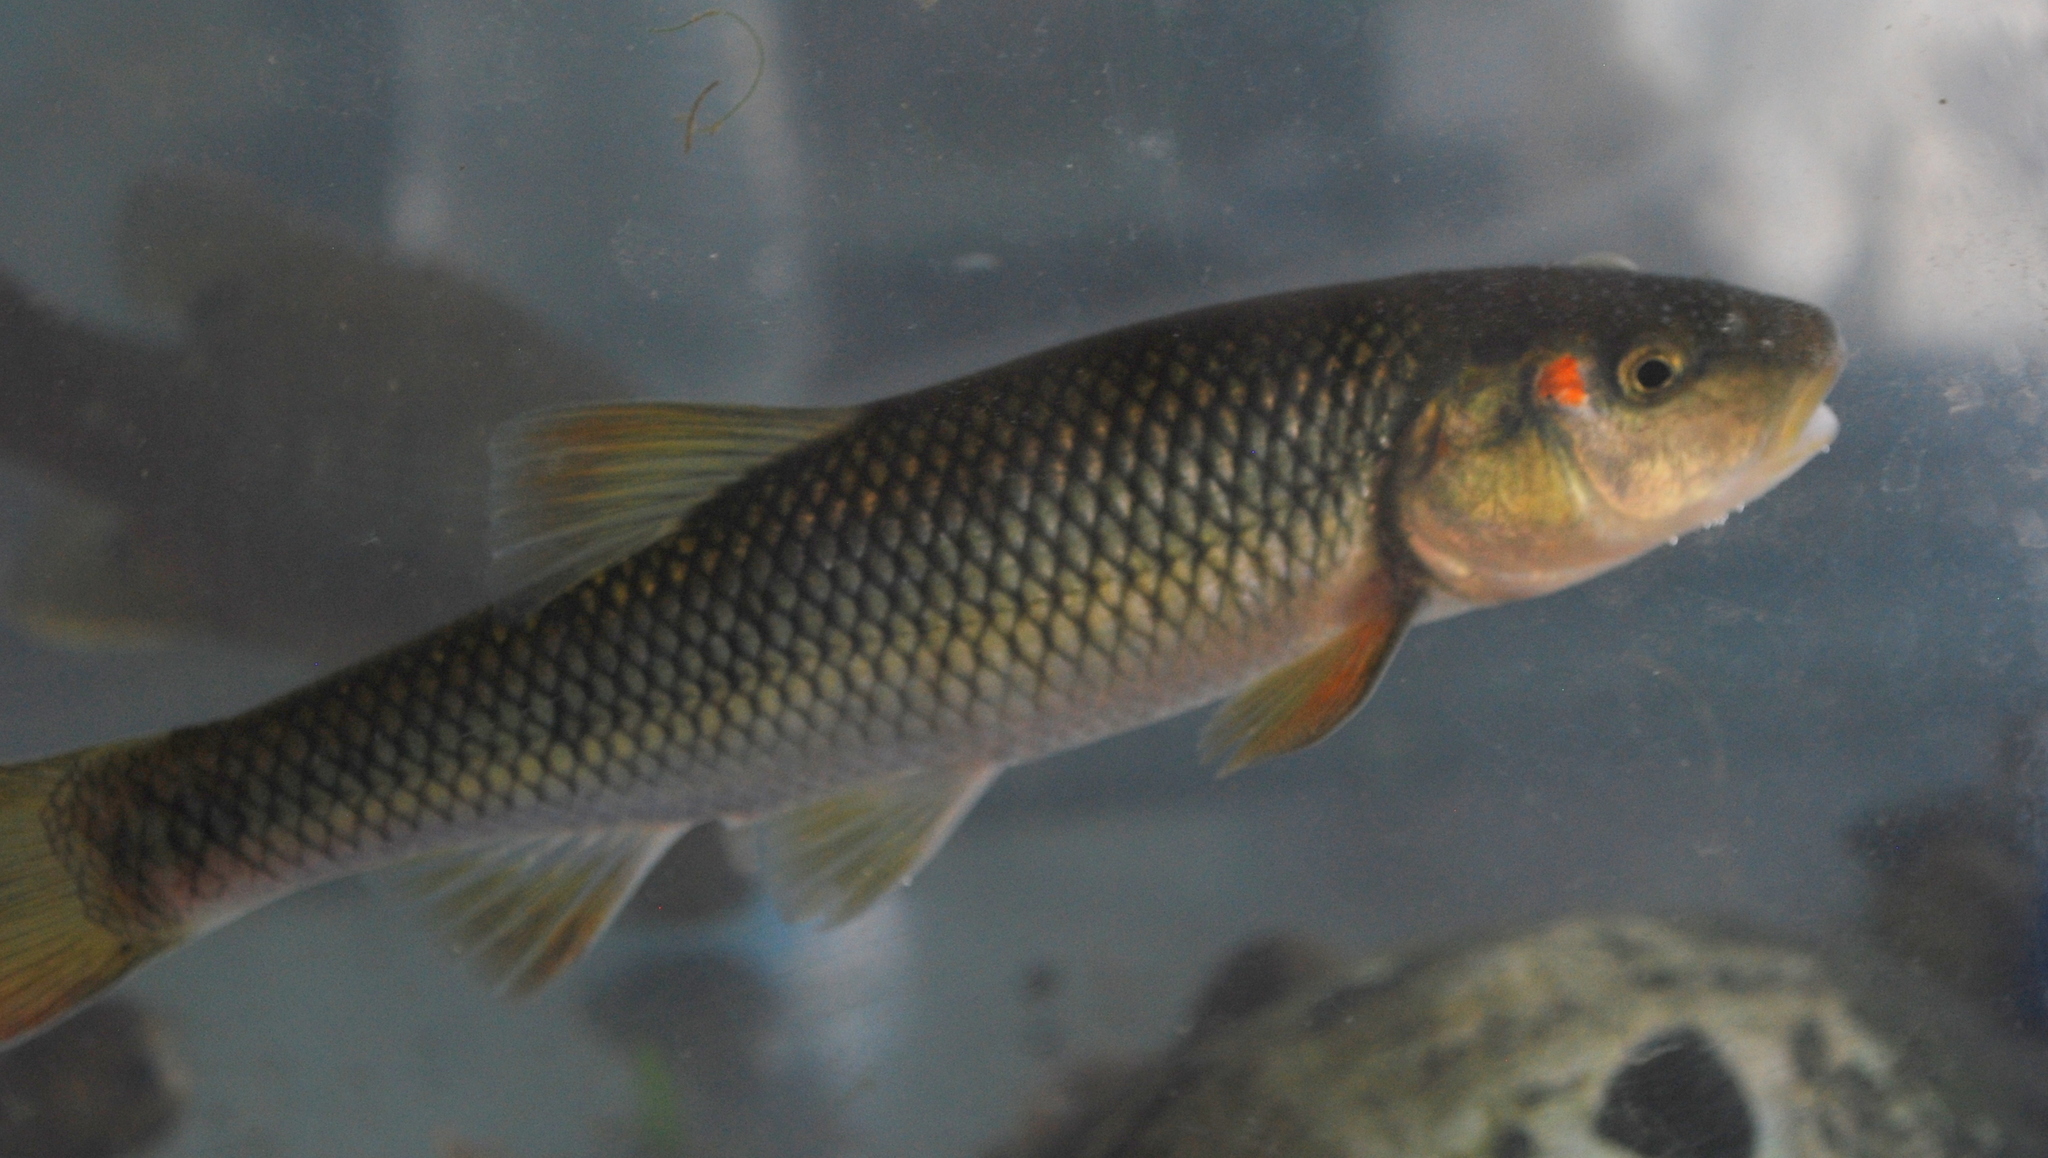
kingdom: Animalia
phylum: Chordata
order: Cypriniformes
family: Cyprinidae
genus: Nocomis
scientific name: Nocomis biguttatus
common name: Hornyhead chub
